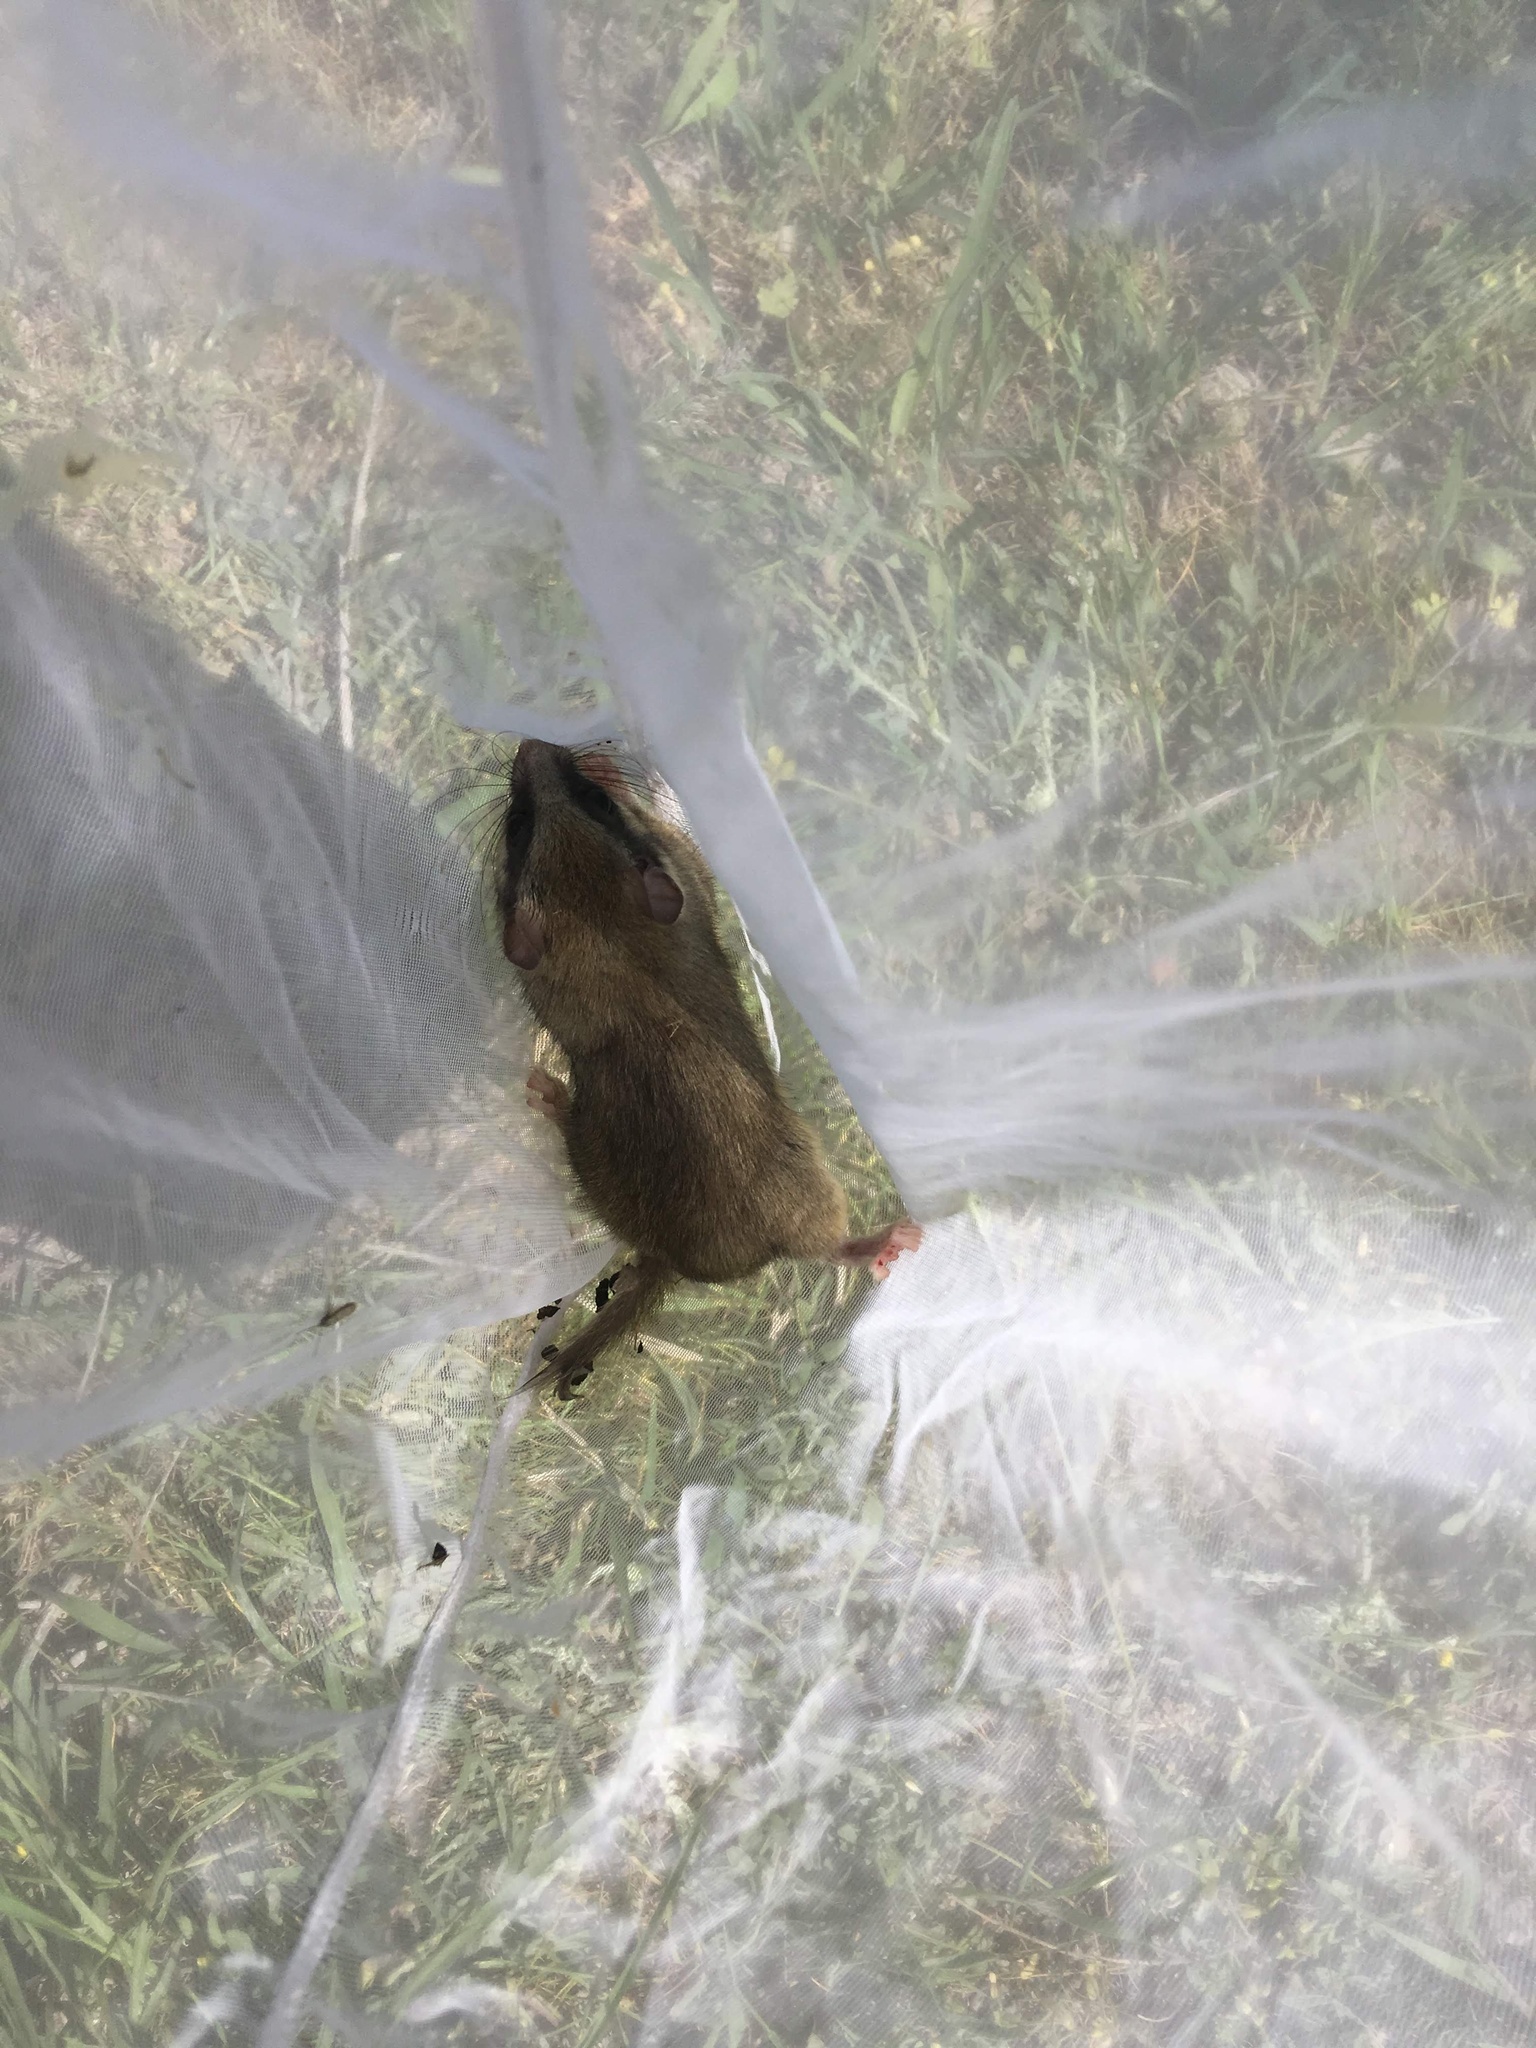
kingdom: Animalia
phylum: Chordata
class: Mammalia
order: Rodentia
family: Gliridae
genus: Dryomys
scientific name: Dryomys nitedula
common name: Forest dormouse
